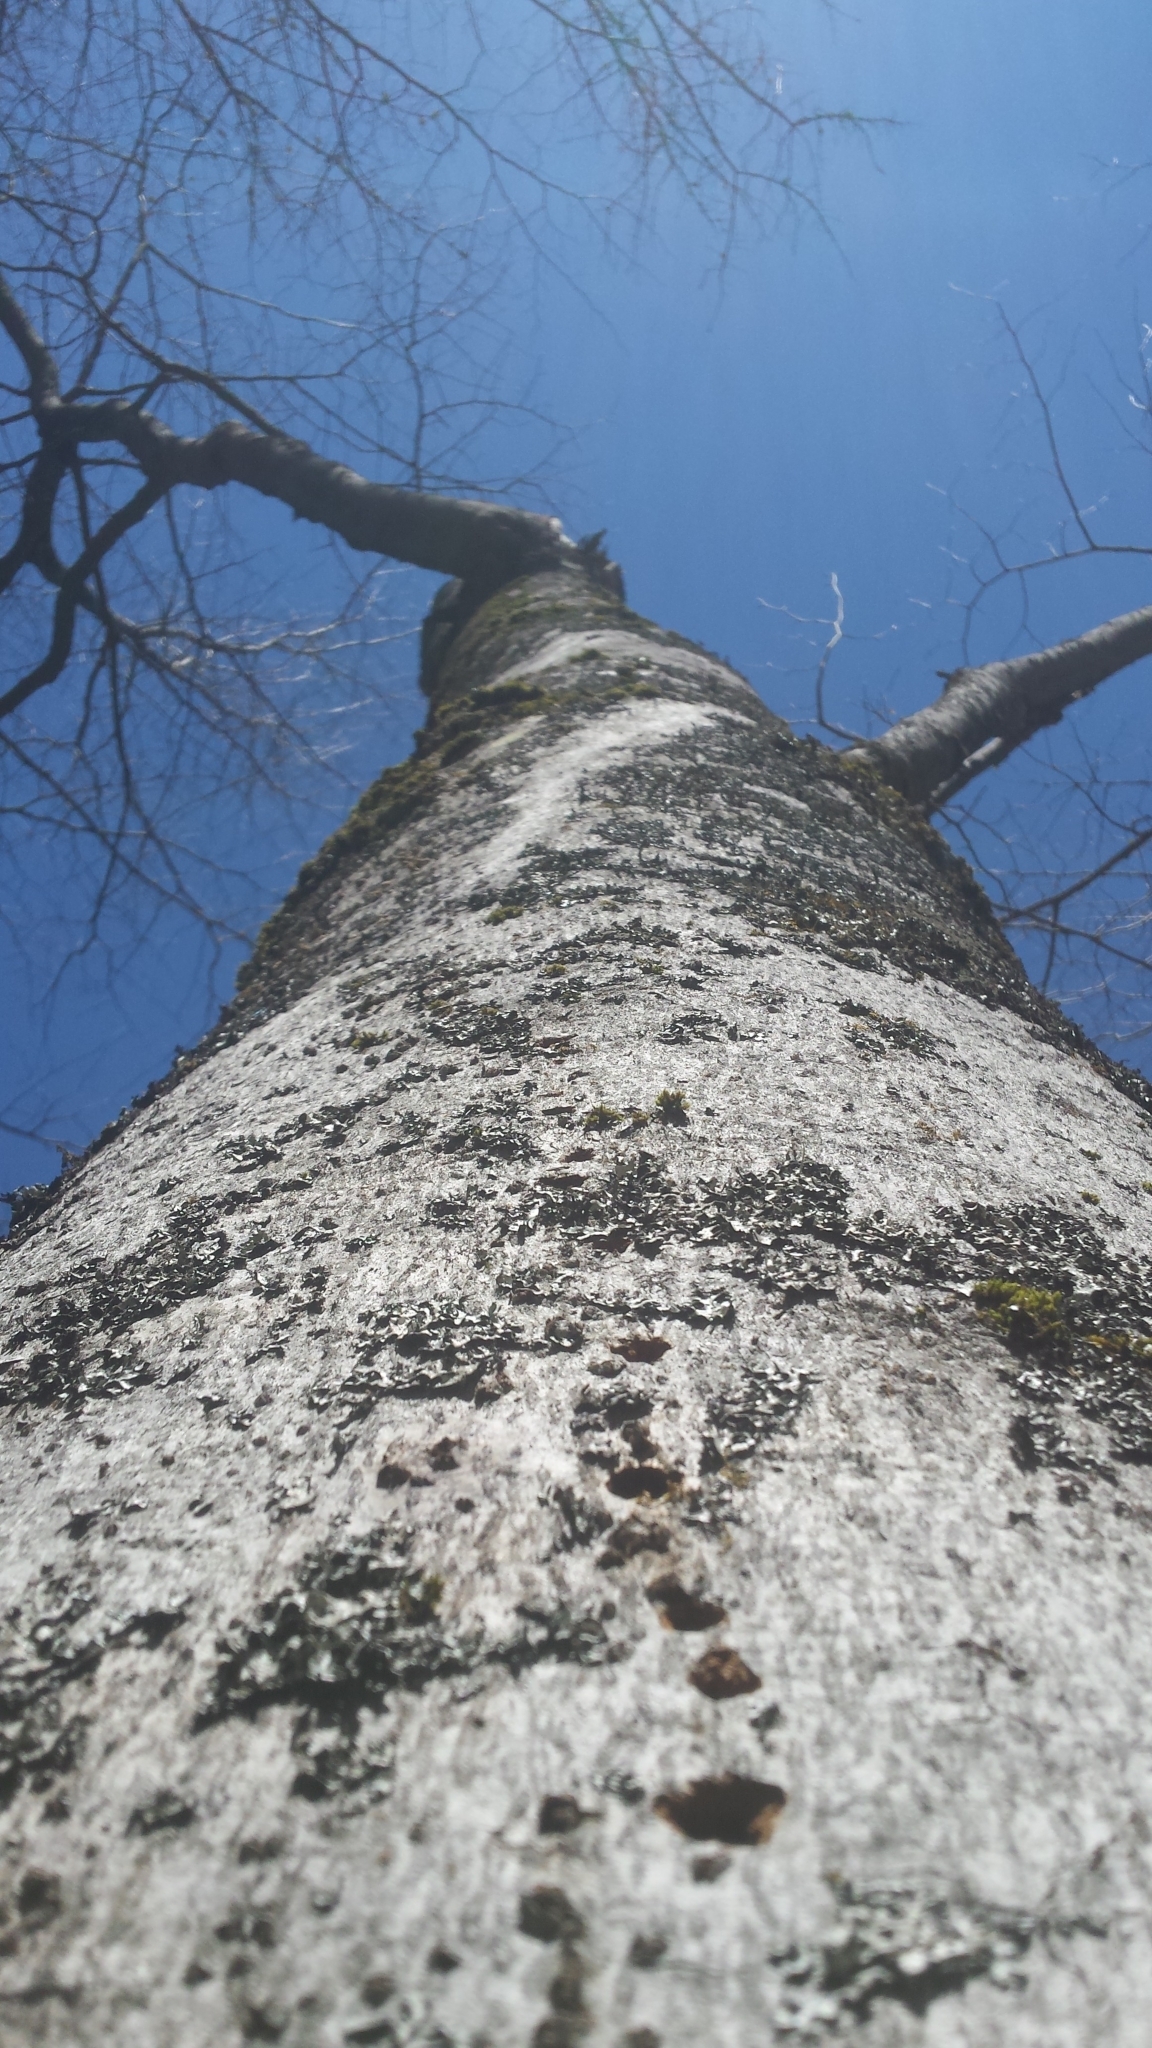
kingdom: Plantae
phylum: Tracheophyta
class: Magnoliopsida
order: Fagales
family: Fagaceae
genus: Fagus
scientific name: Fagus grandifolia
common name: American beech
